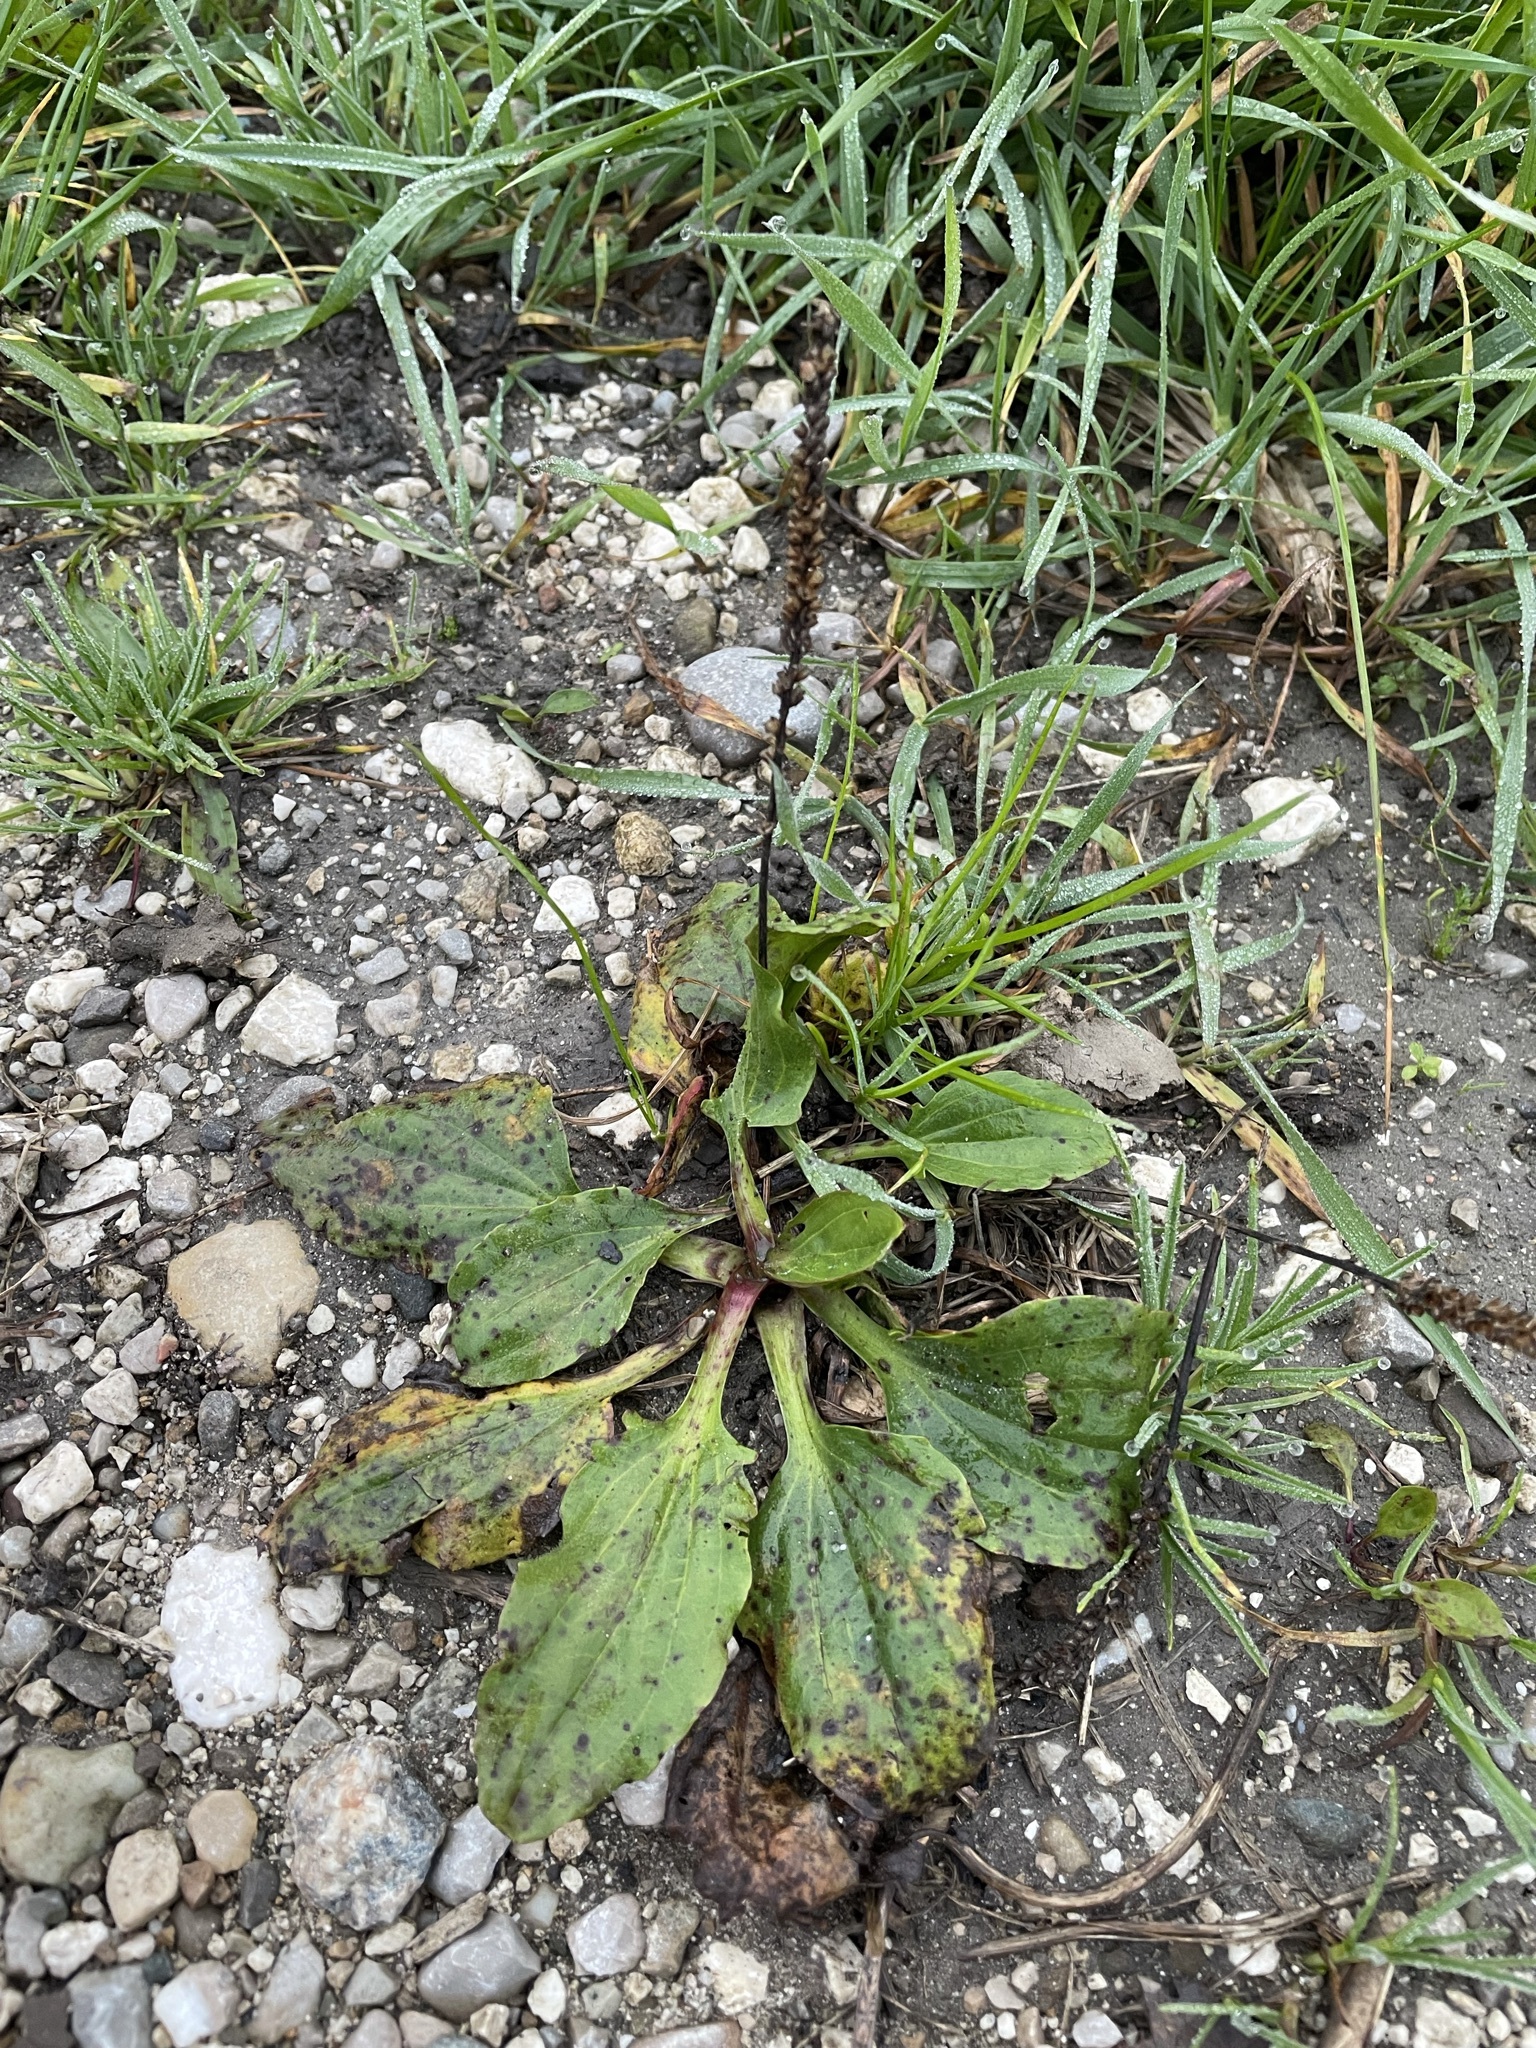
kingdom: Plantae
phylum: Tracheophyta
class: Magnoliopsida
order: Lamiales
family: Plantaginaceae
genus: Plantago
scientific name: Plantago major
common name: Common plantain
